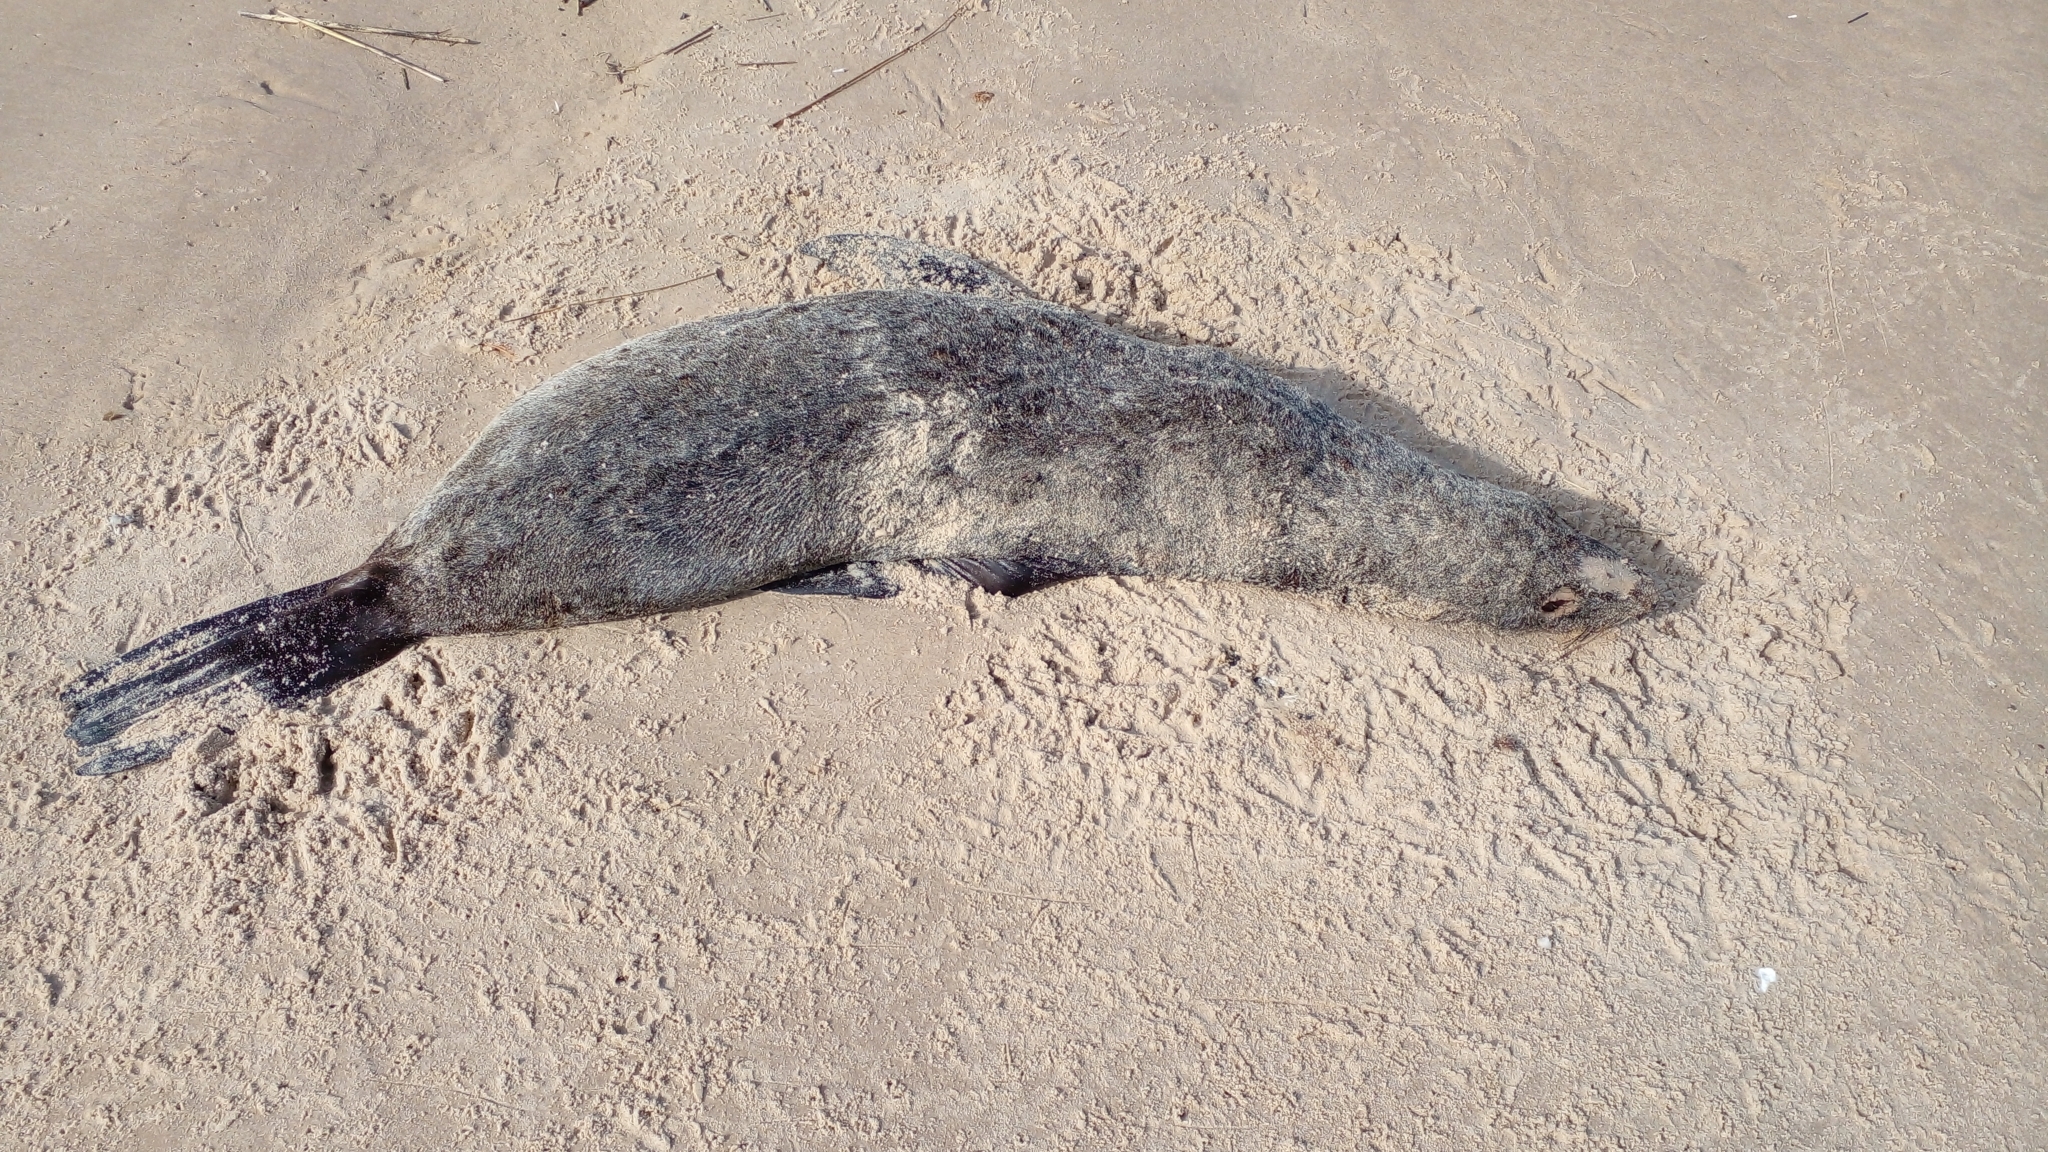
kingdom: Animalia
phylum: Chordata
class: Mammalia
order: Carnivora
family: Otariidae
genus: Arctocephalus
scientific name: Arctocephalus australis
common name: South american fur seal
